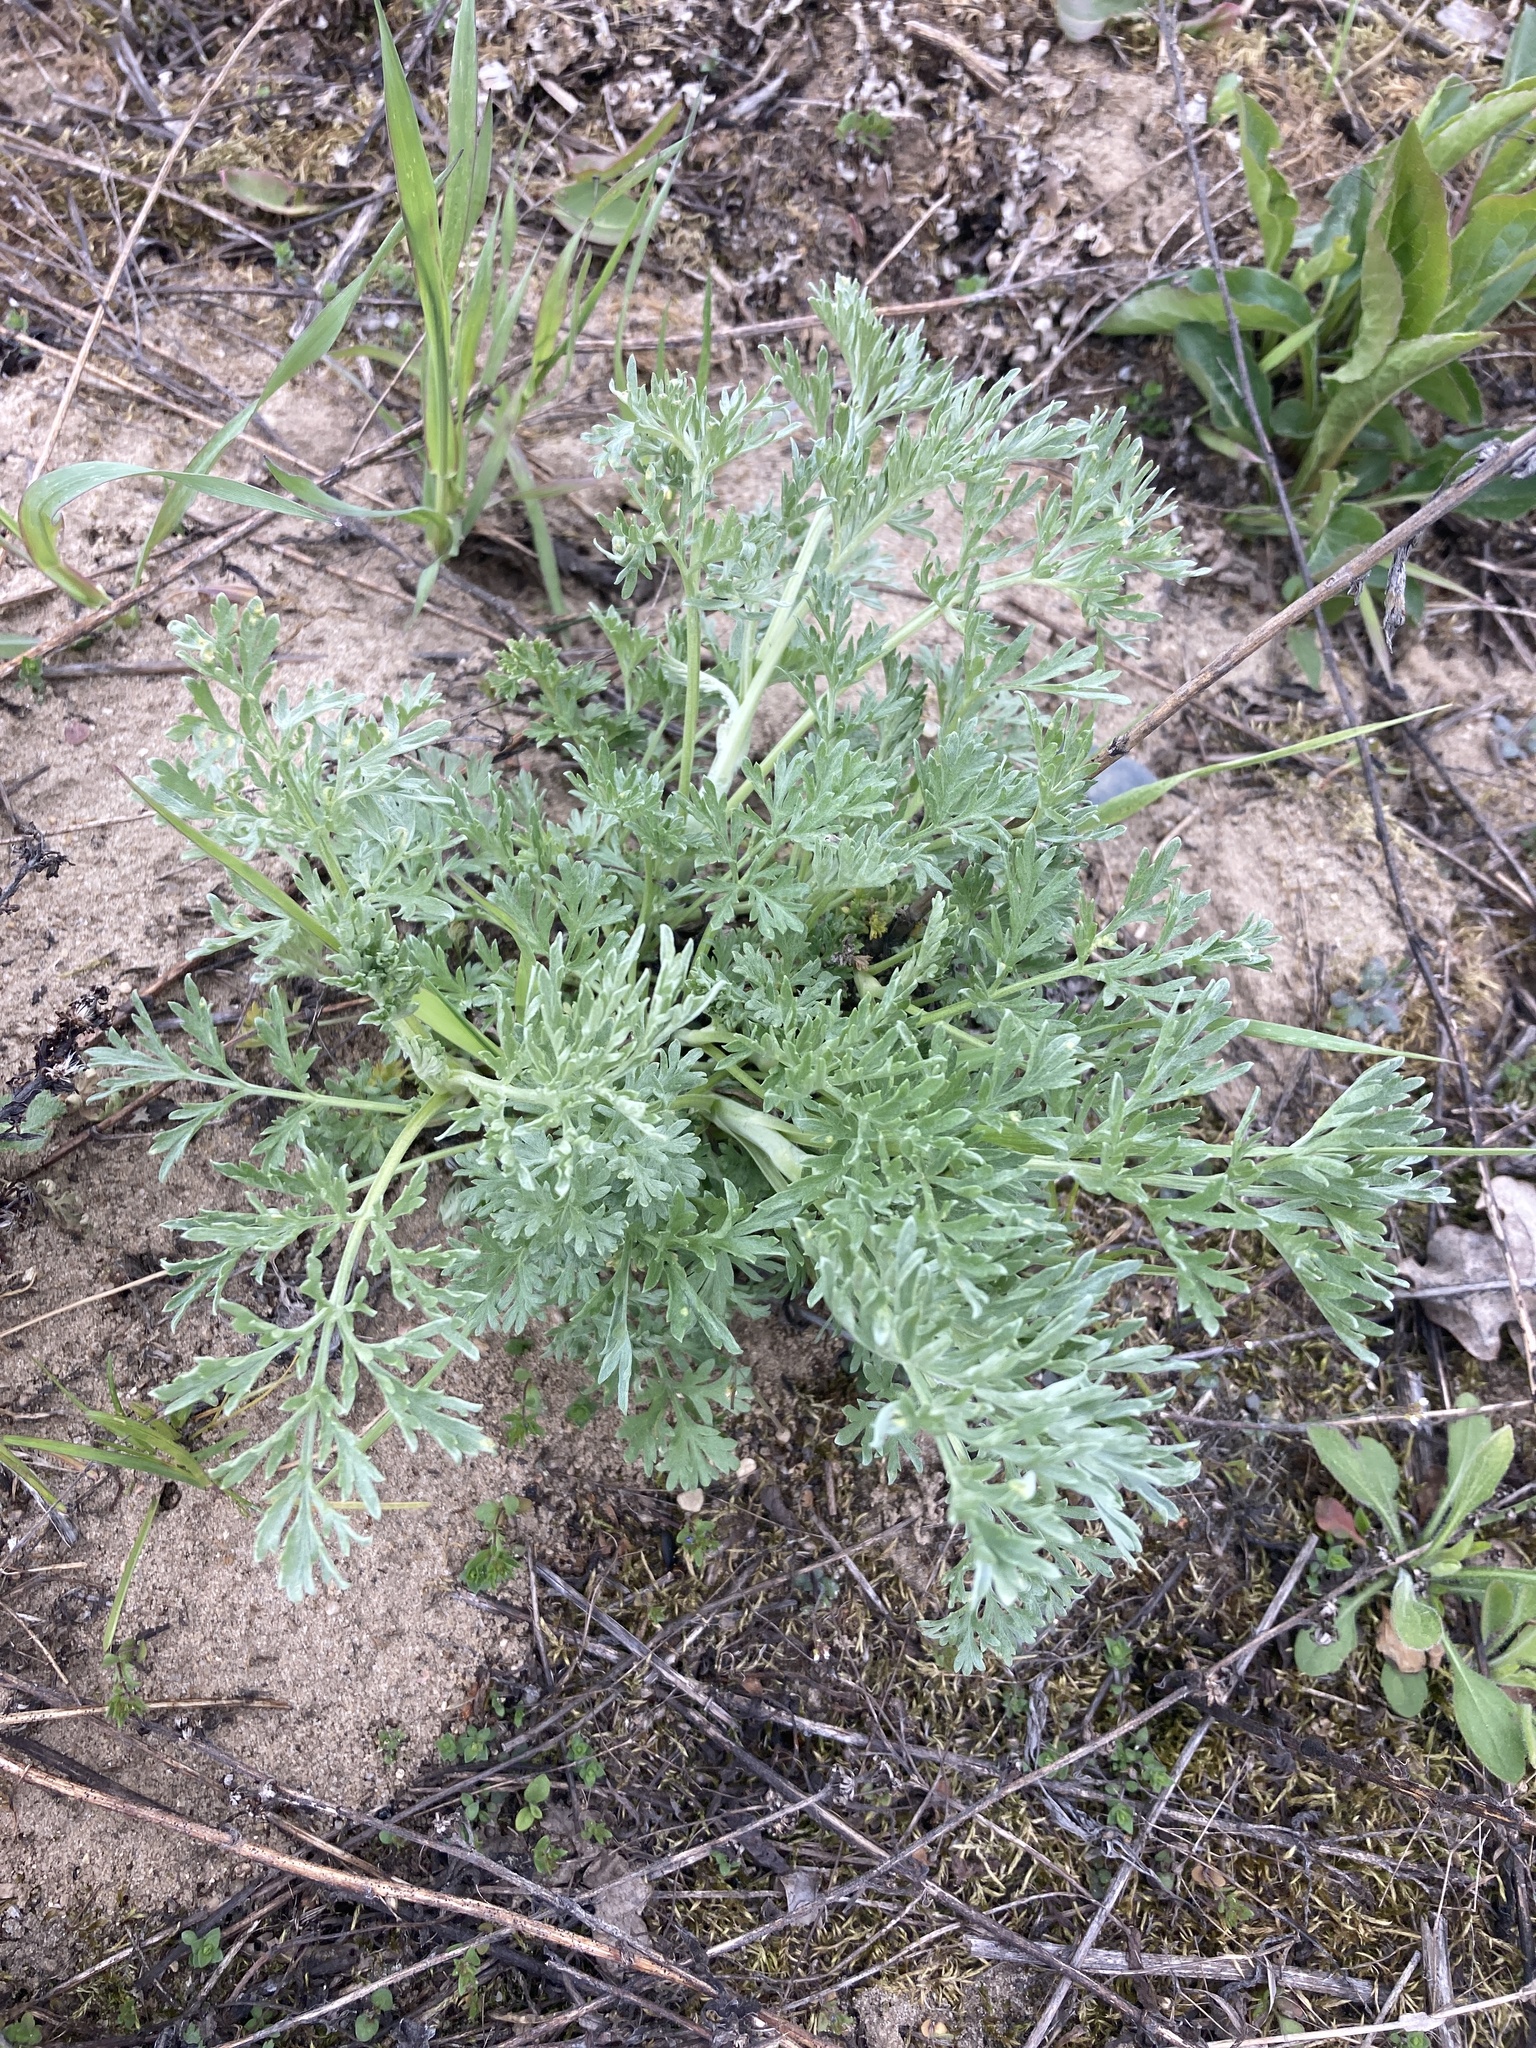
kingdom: Plantae
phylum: Tracheophyta
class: Magnoliopsida
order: Asterales
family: Asteraceae
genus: Artemisia
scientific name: Artemisia absinthium
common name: Wormwood
